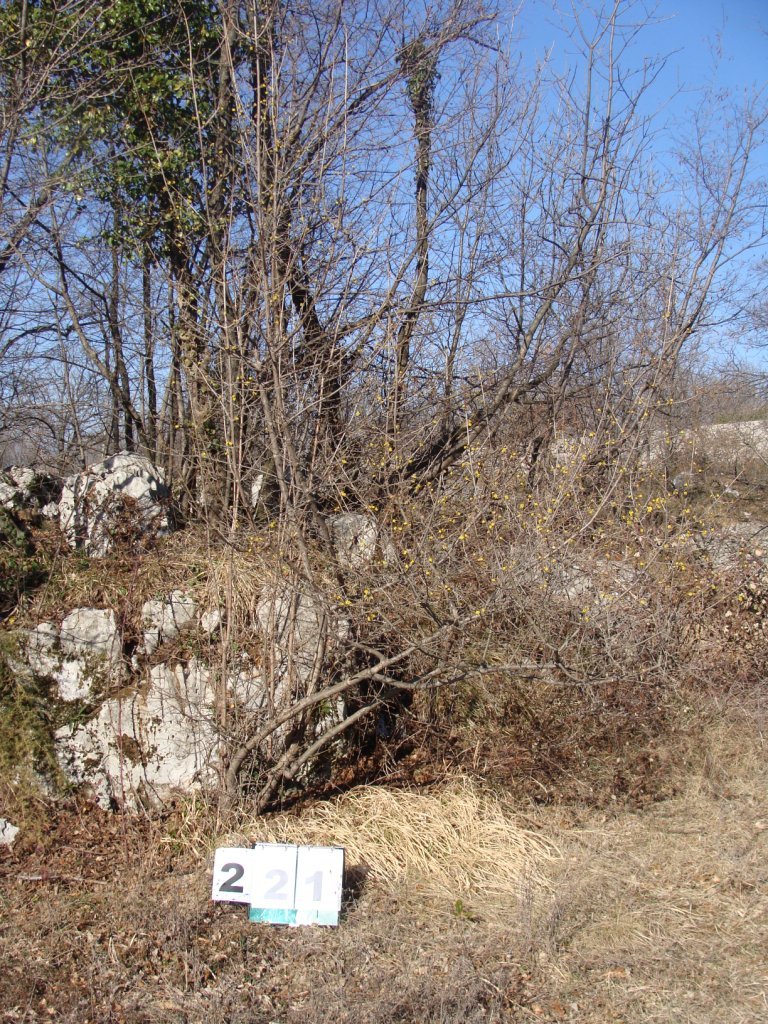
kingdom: Plantae
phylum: Tracheophyta
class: Magnoliopsida
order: Cornales
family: Cornaceae
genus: Cornus
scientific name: Cornus mas
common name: Cornelian-cherry
